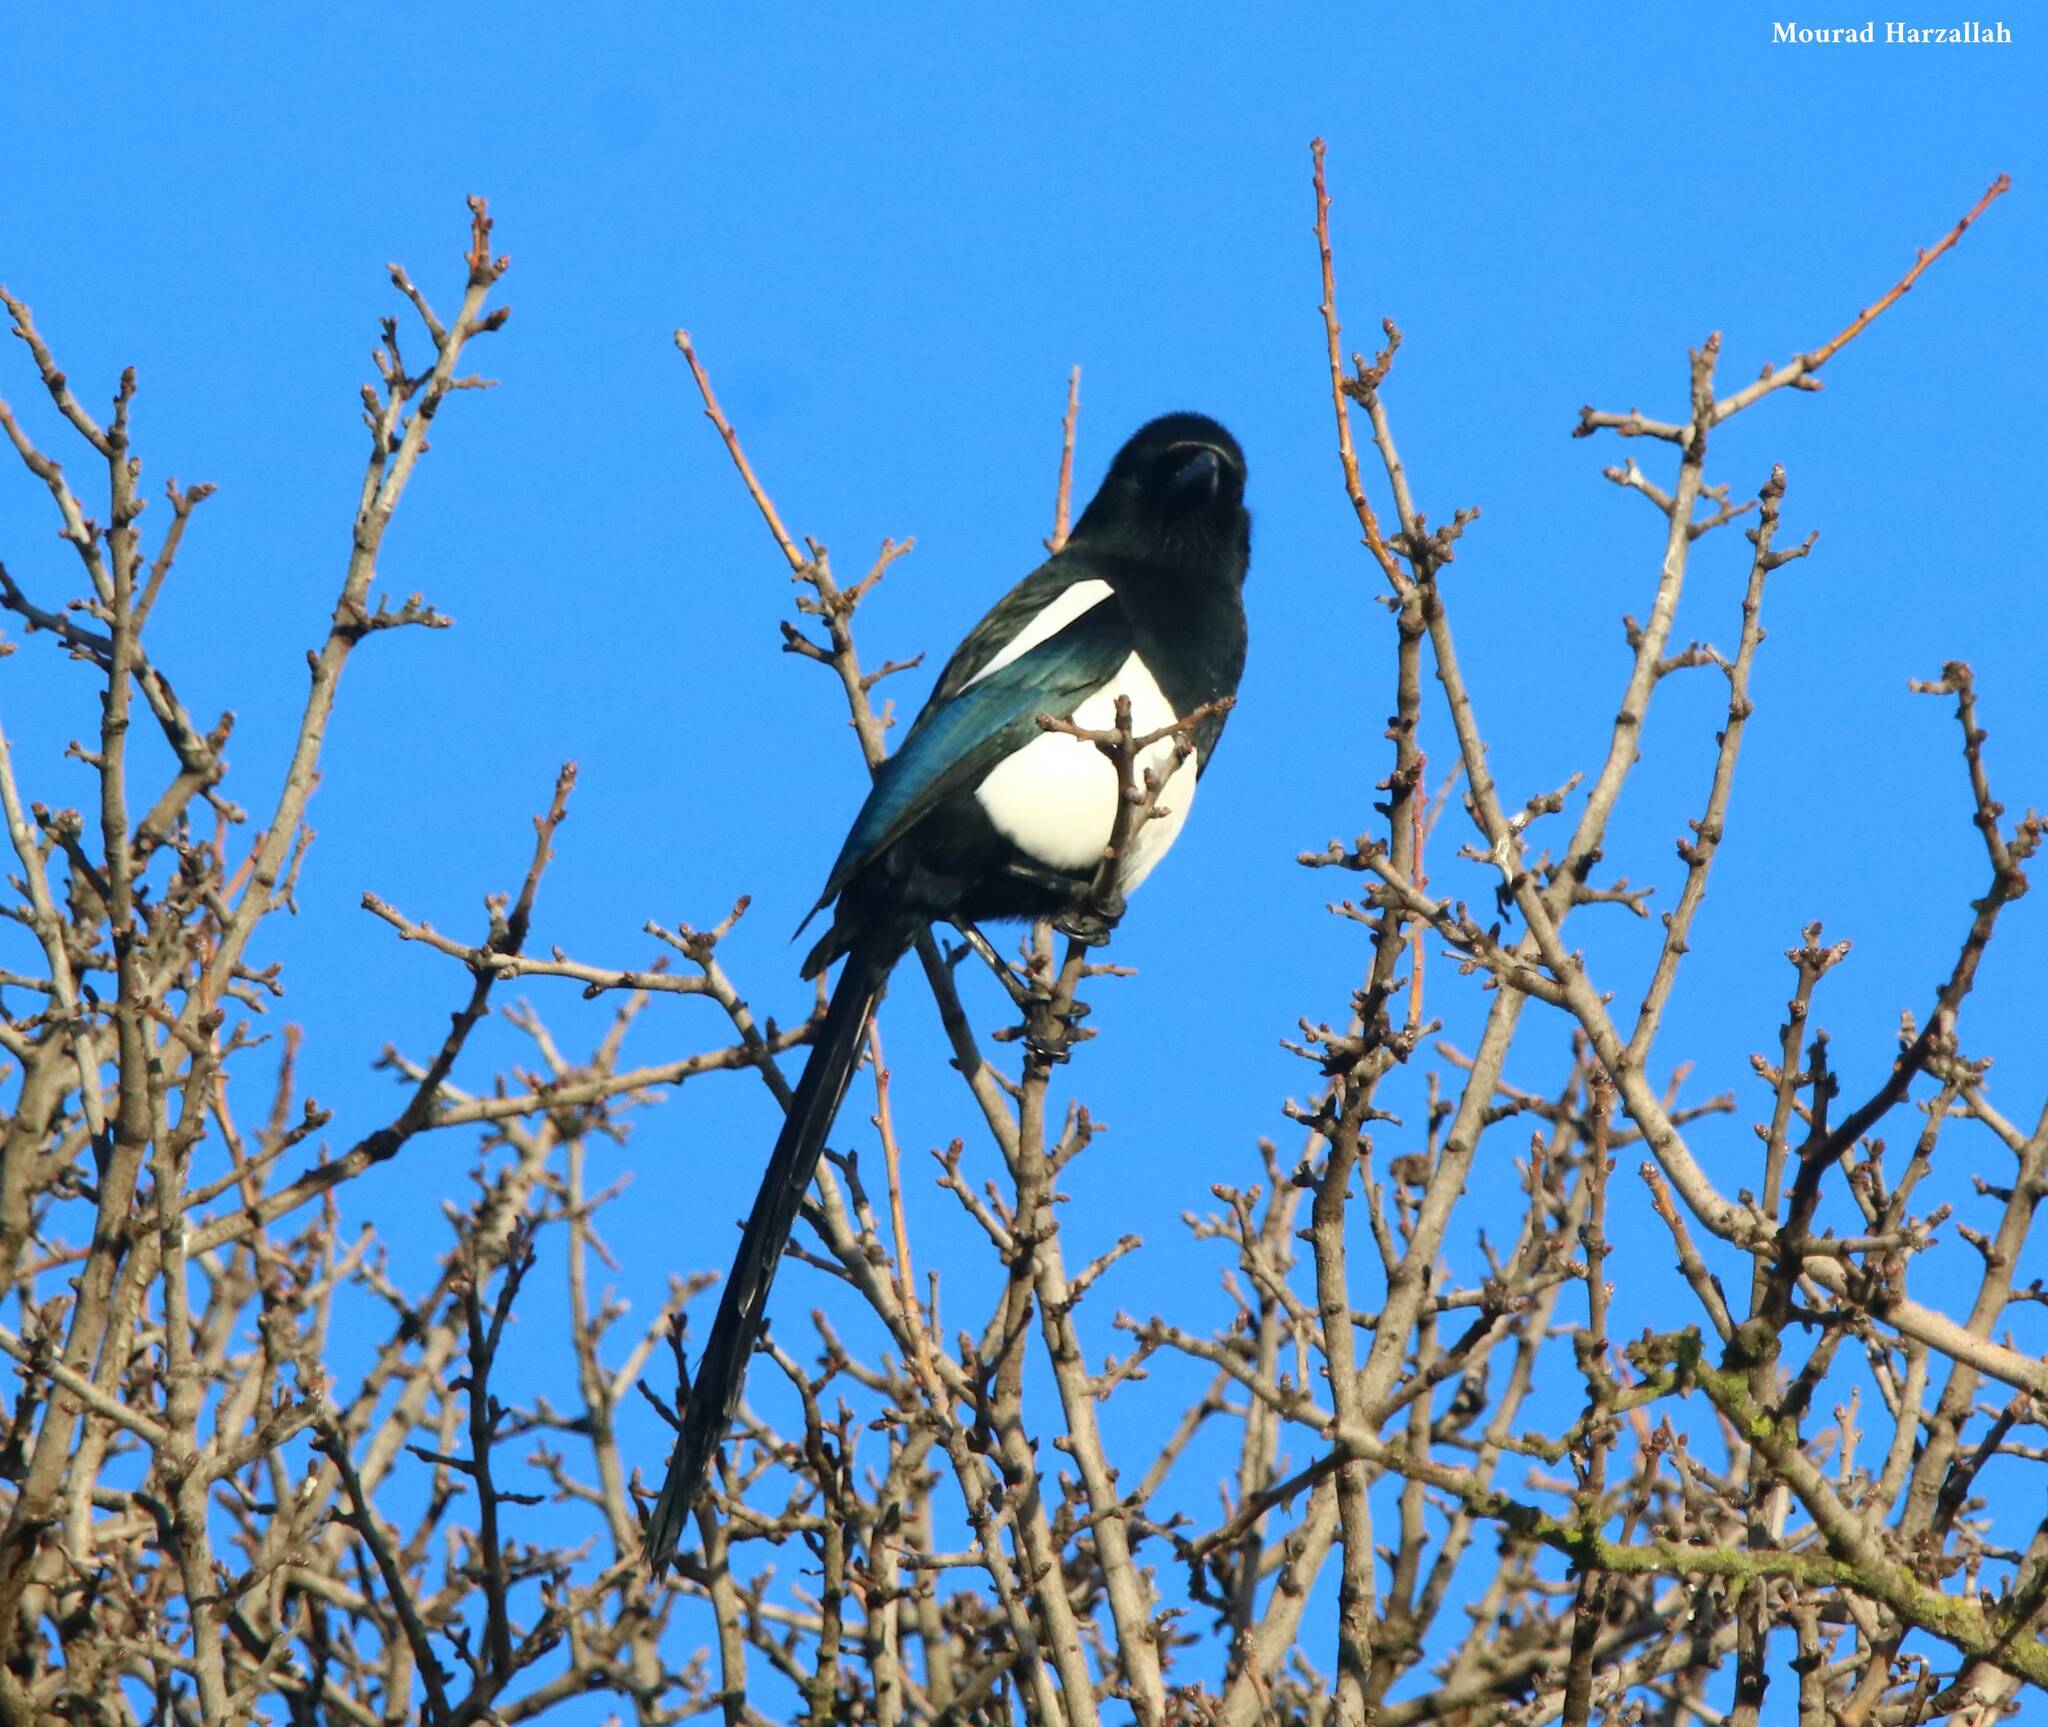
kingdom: Animalia
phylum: Chordata
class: Aves
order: Passeriformes
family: Corvidae
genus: Pica
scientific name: Pica mauritanica
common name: Maghreb magpie
